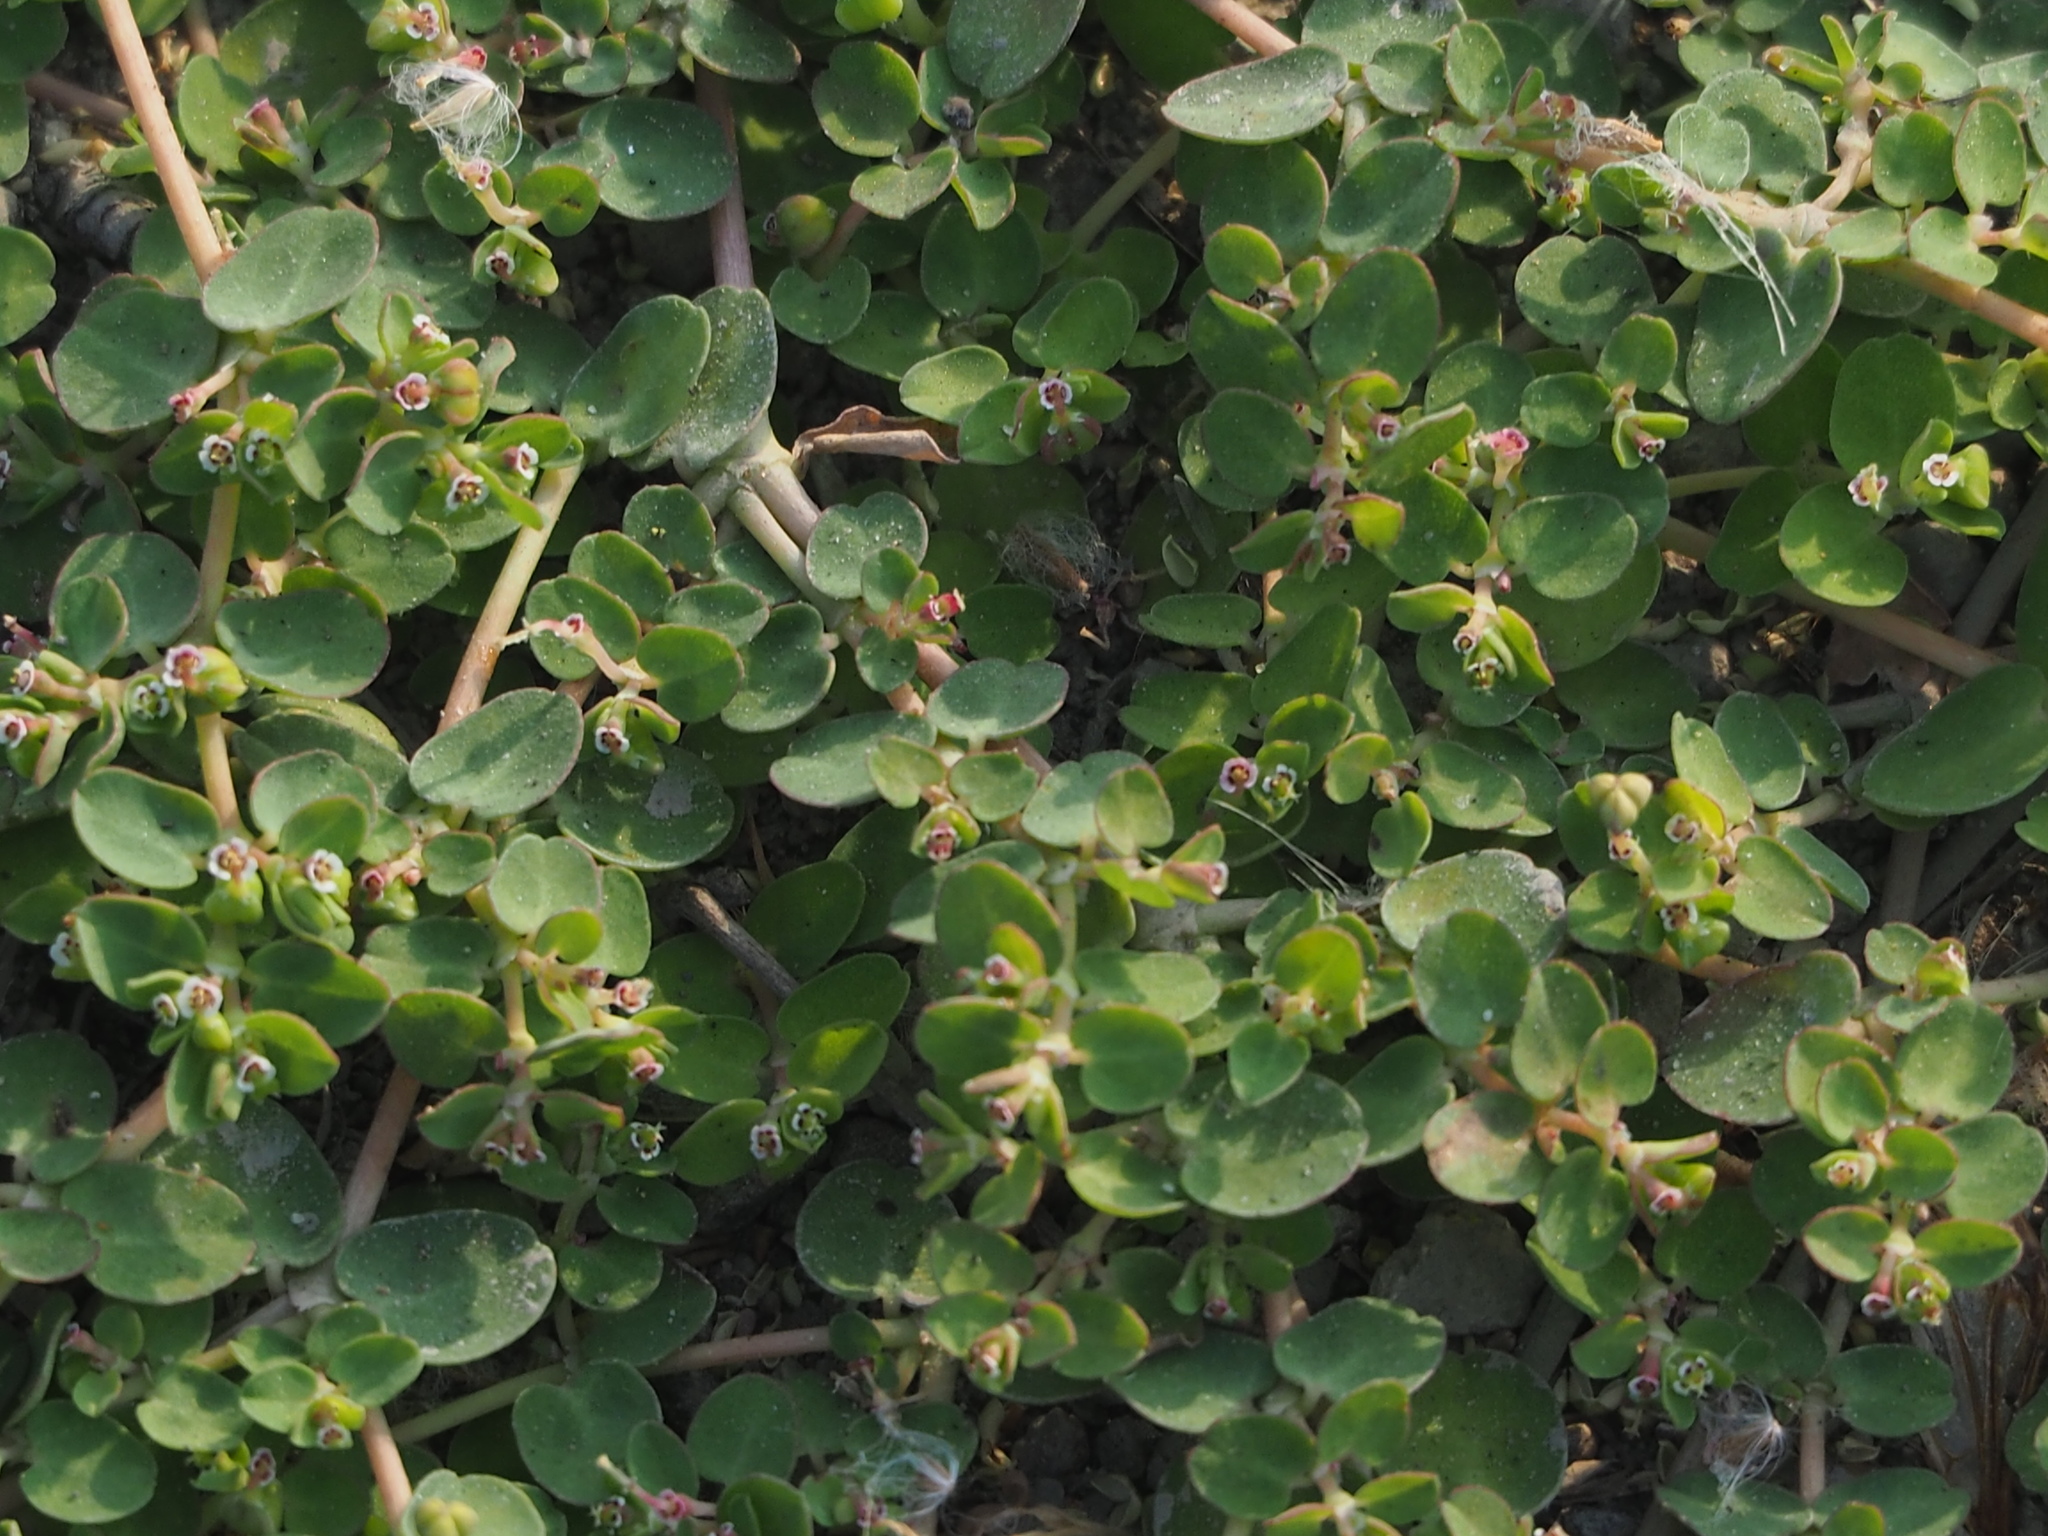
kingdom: Plantae
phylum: Tracheophyta
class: Magnoliopsida
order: Malpighiales
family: Euphorbiaceae
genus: Euphorbia
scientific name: Euphorbia serpens
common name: Matted sandmat
